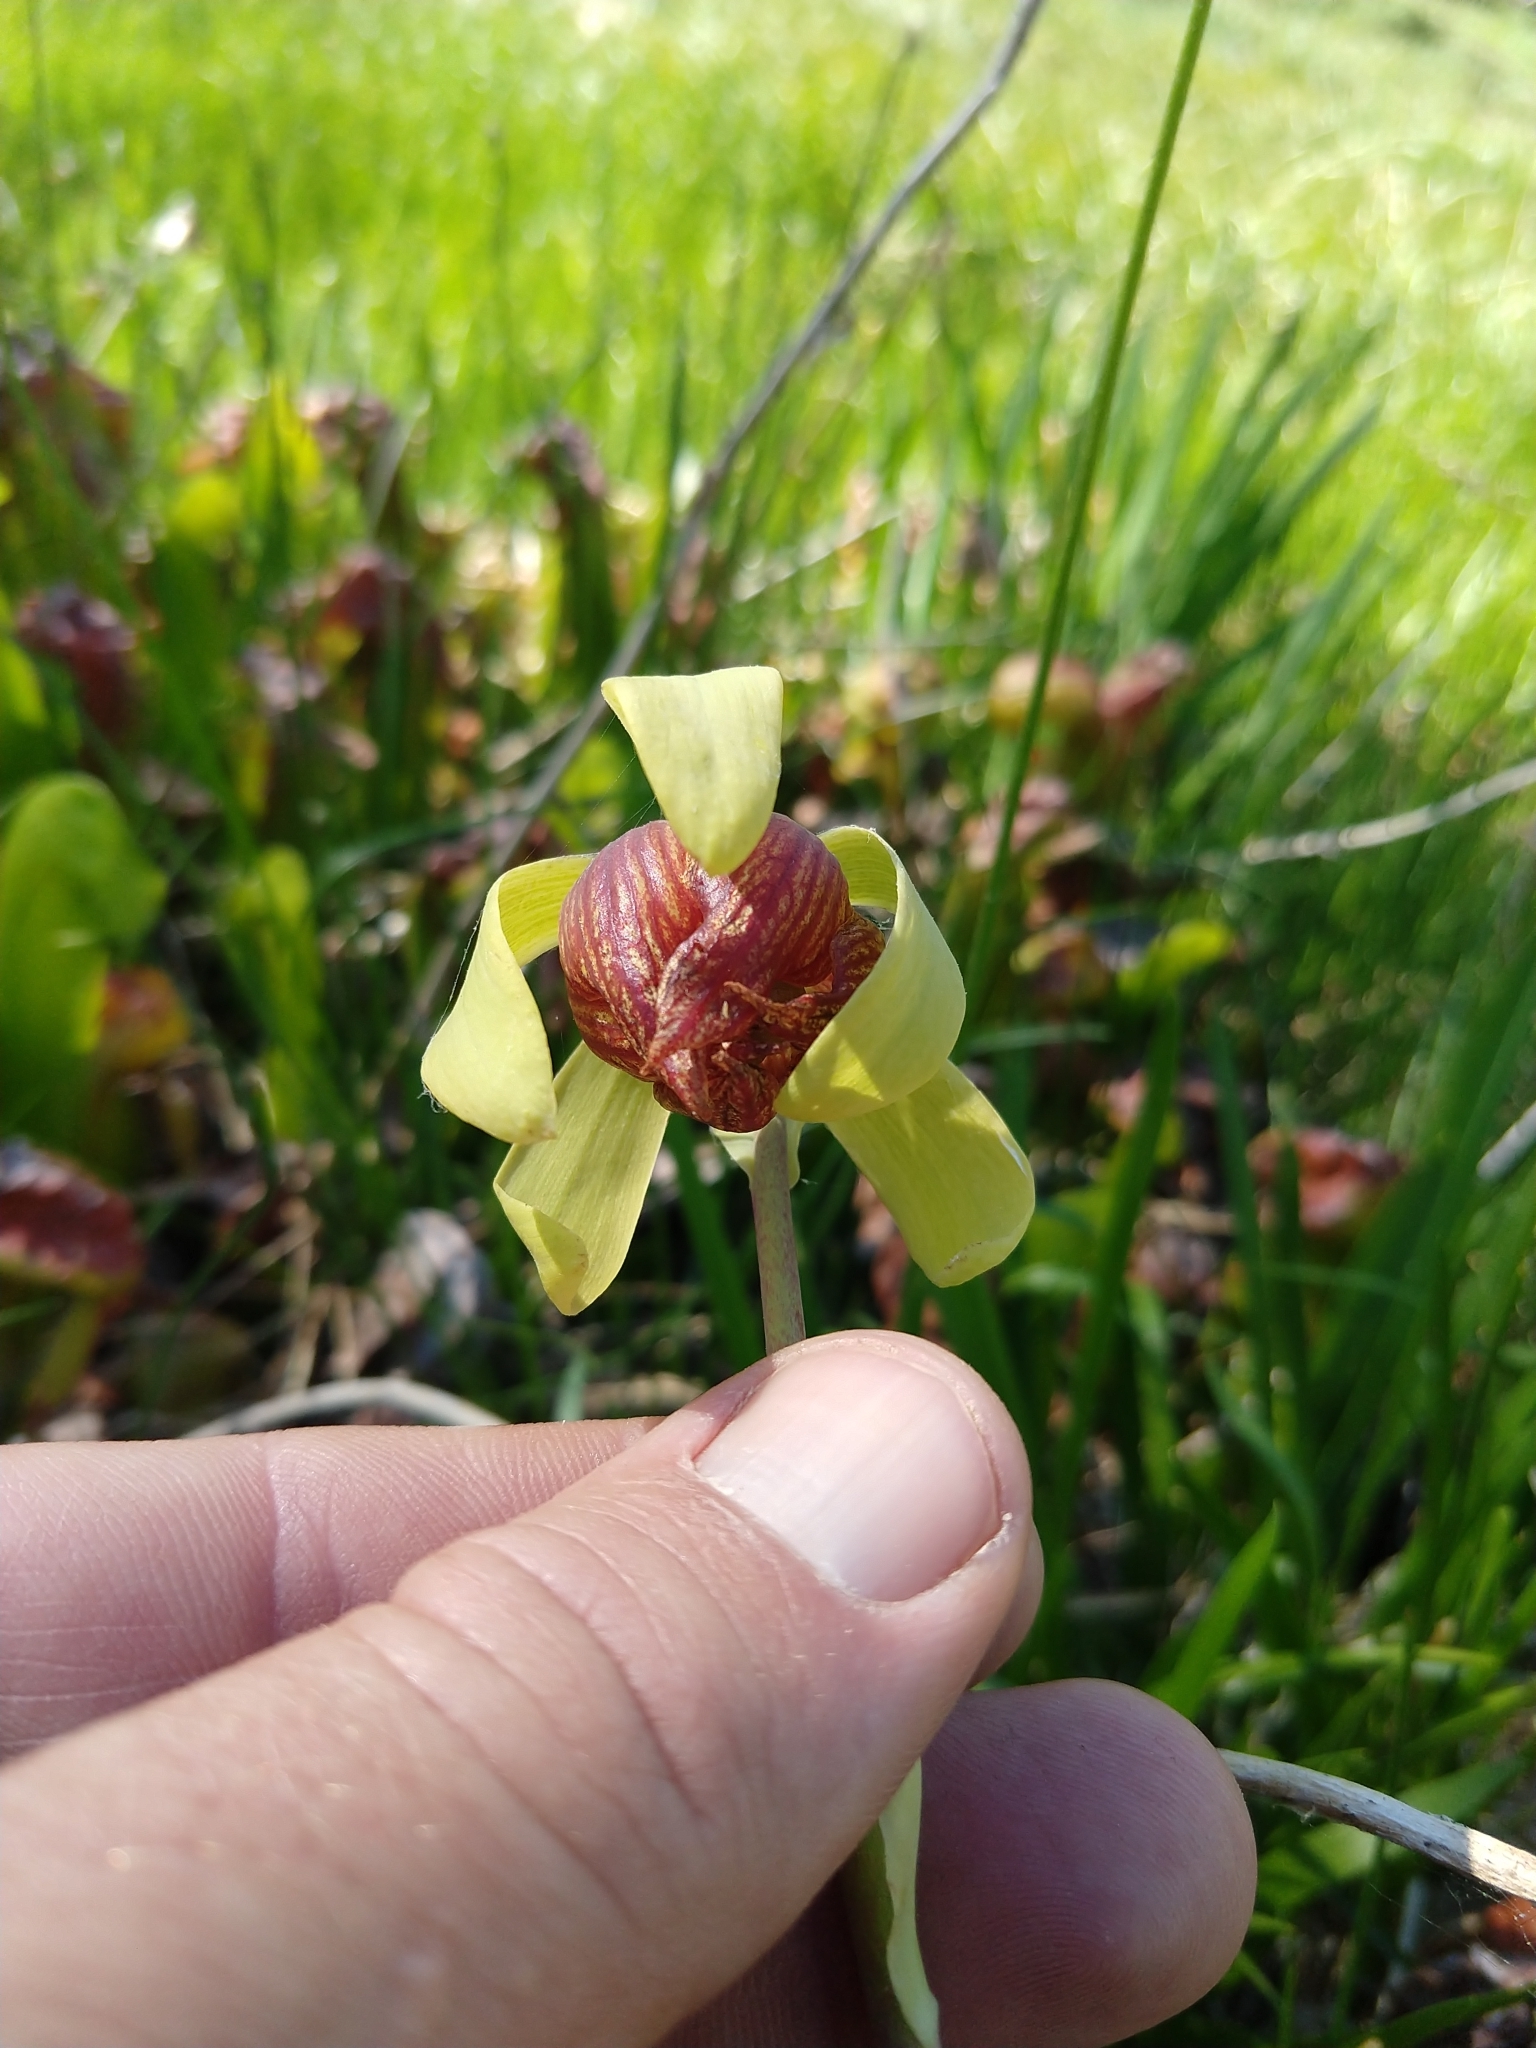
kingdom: Plantae
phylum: Tracheophyta
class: Magnoliopsida
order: Ericales
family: Sarraceniaceae
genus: Darlingtonia
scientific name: Darlingtonia californica
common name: California pitcher plant
